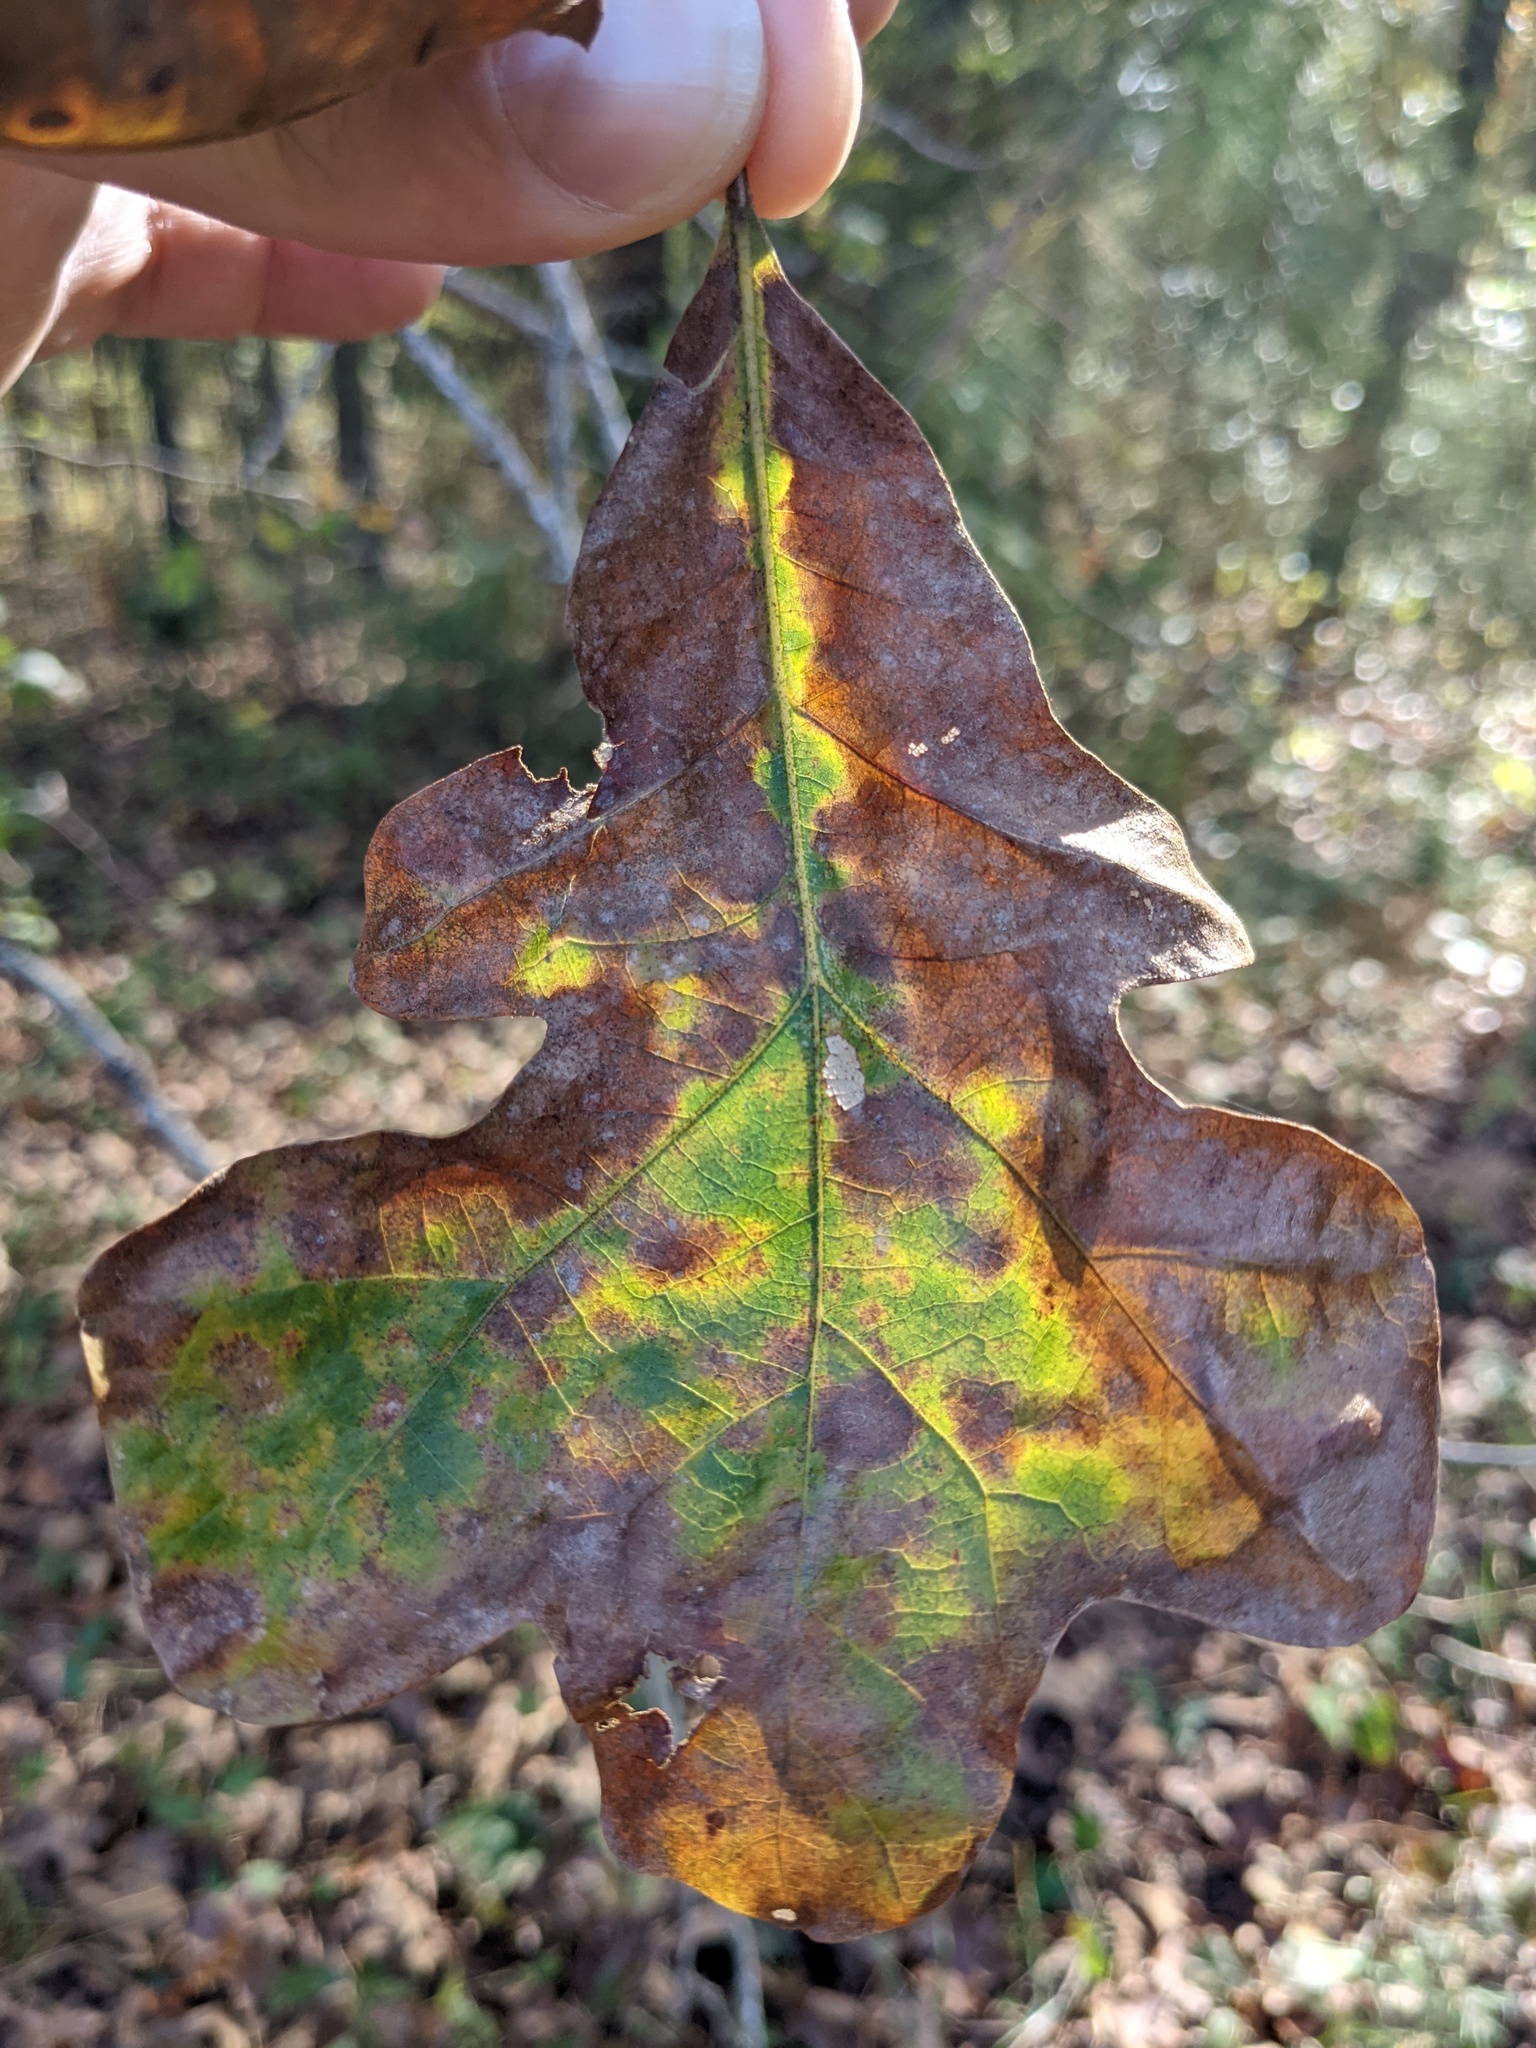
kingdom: Plantae
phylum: Tracheophyta
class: Magnoliopsida
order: Fagales
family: Fagaceae
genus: Quercus
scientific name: Quercus stellata
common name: Post oak
